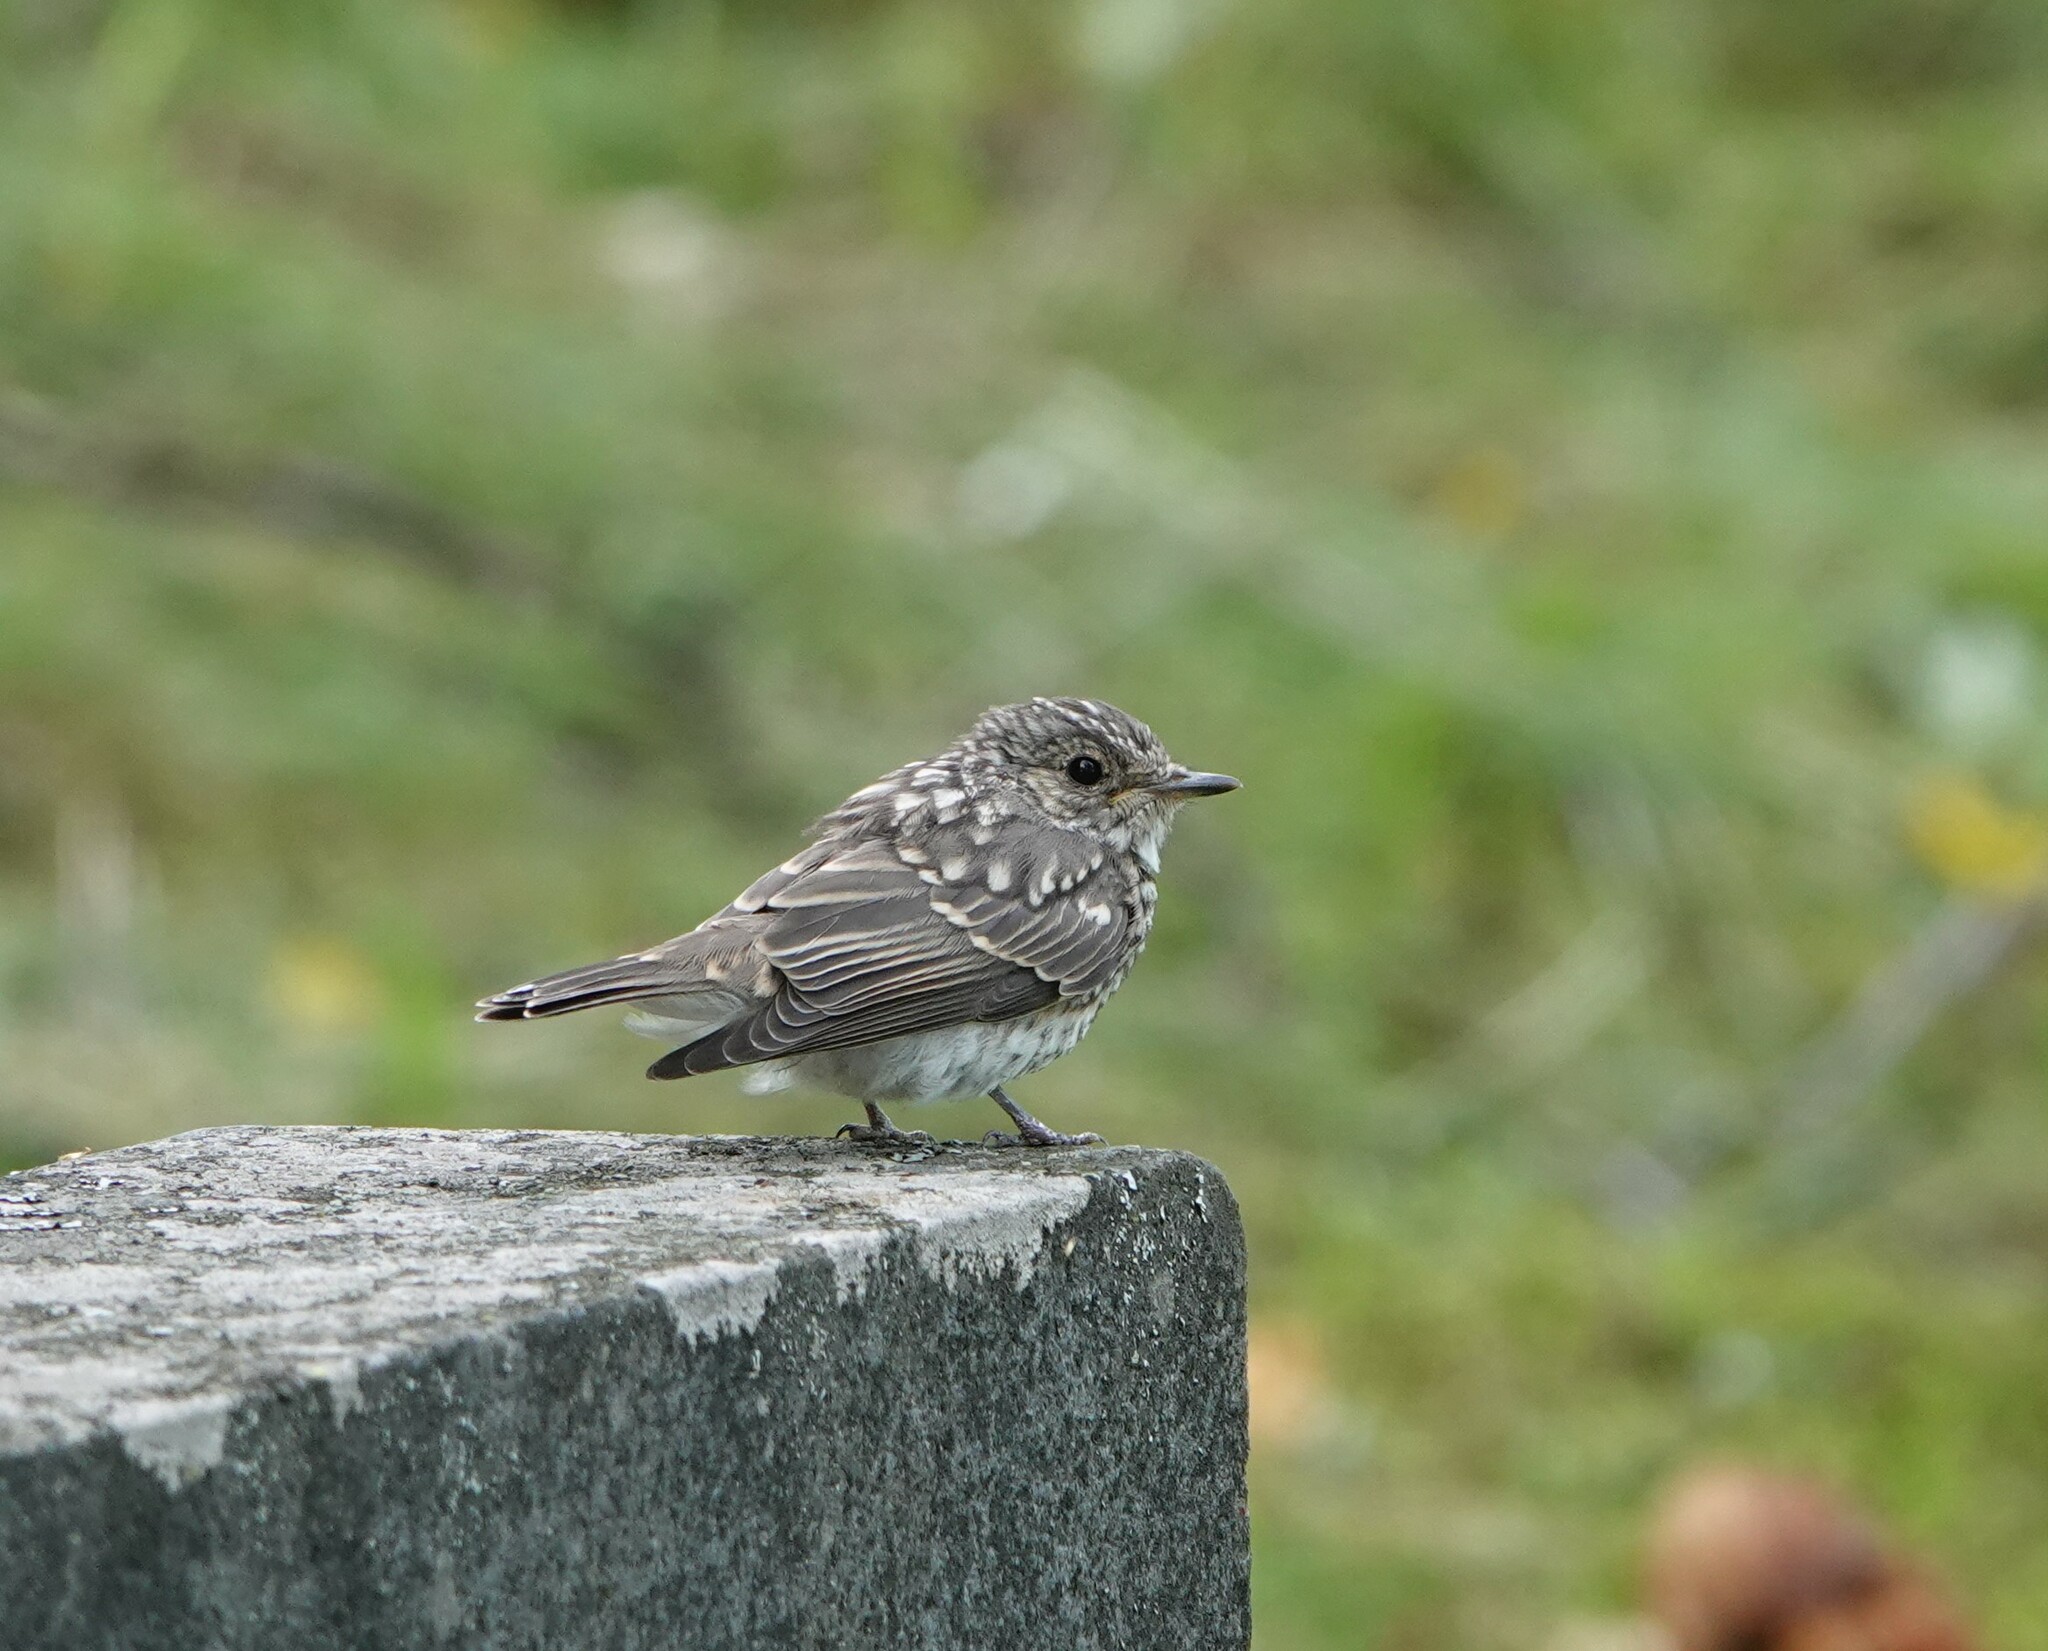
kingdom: Animalia
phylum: Chordata
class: Aves
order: Passeriformes
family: Muscicapidae
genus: Muscicapa
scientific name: Muscicapa striata
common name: Spotted flycatcher
